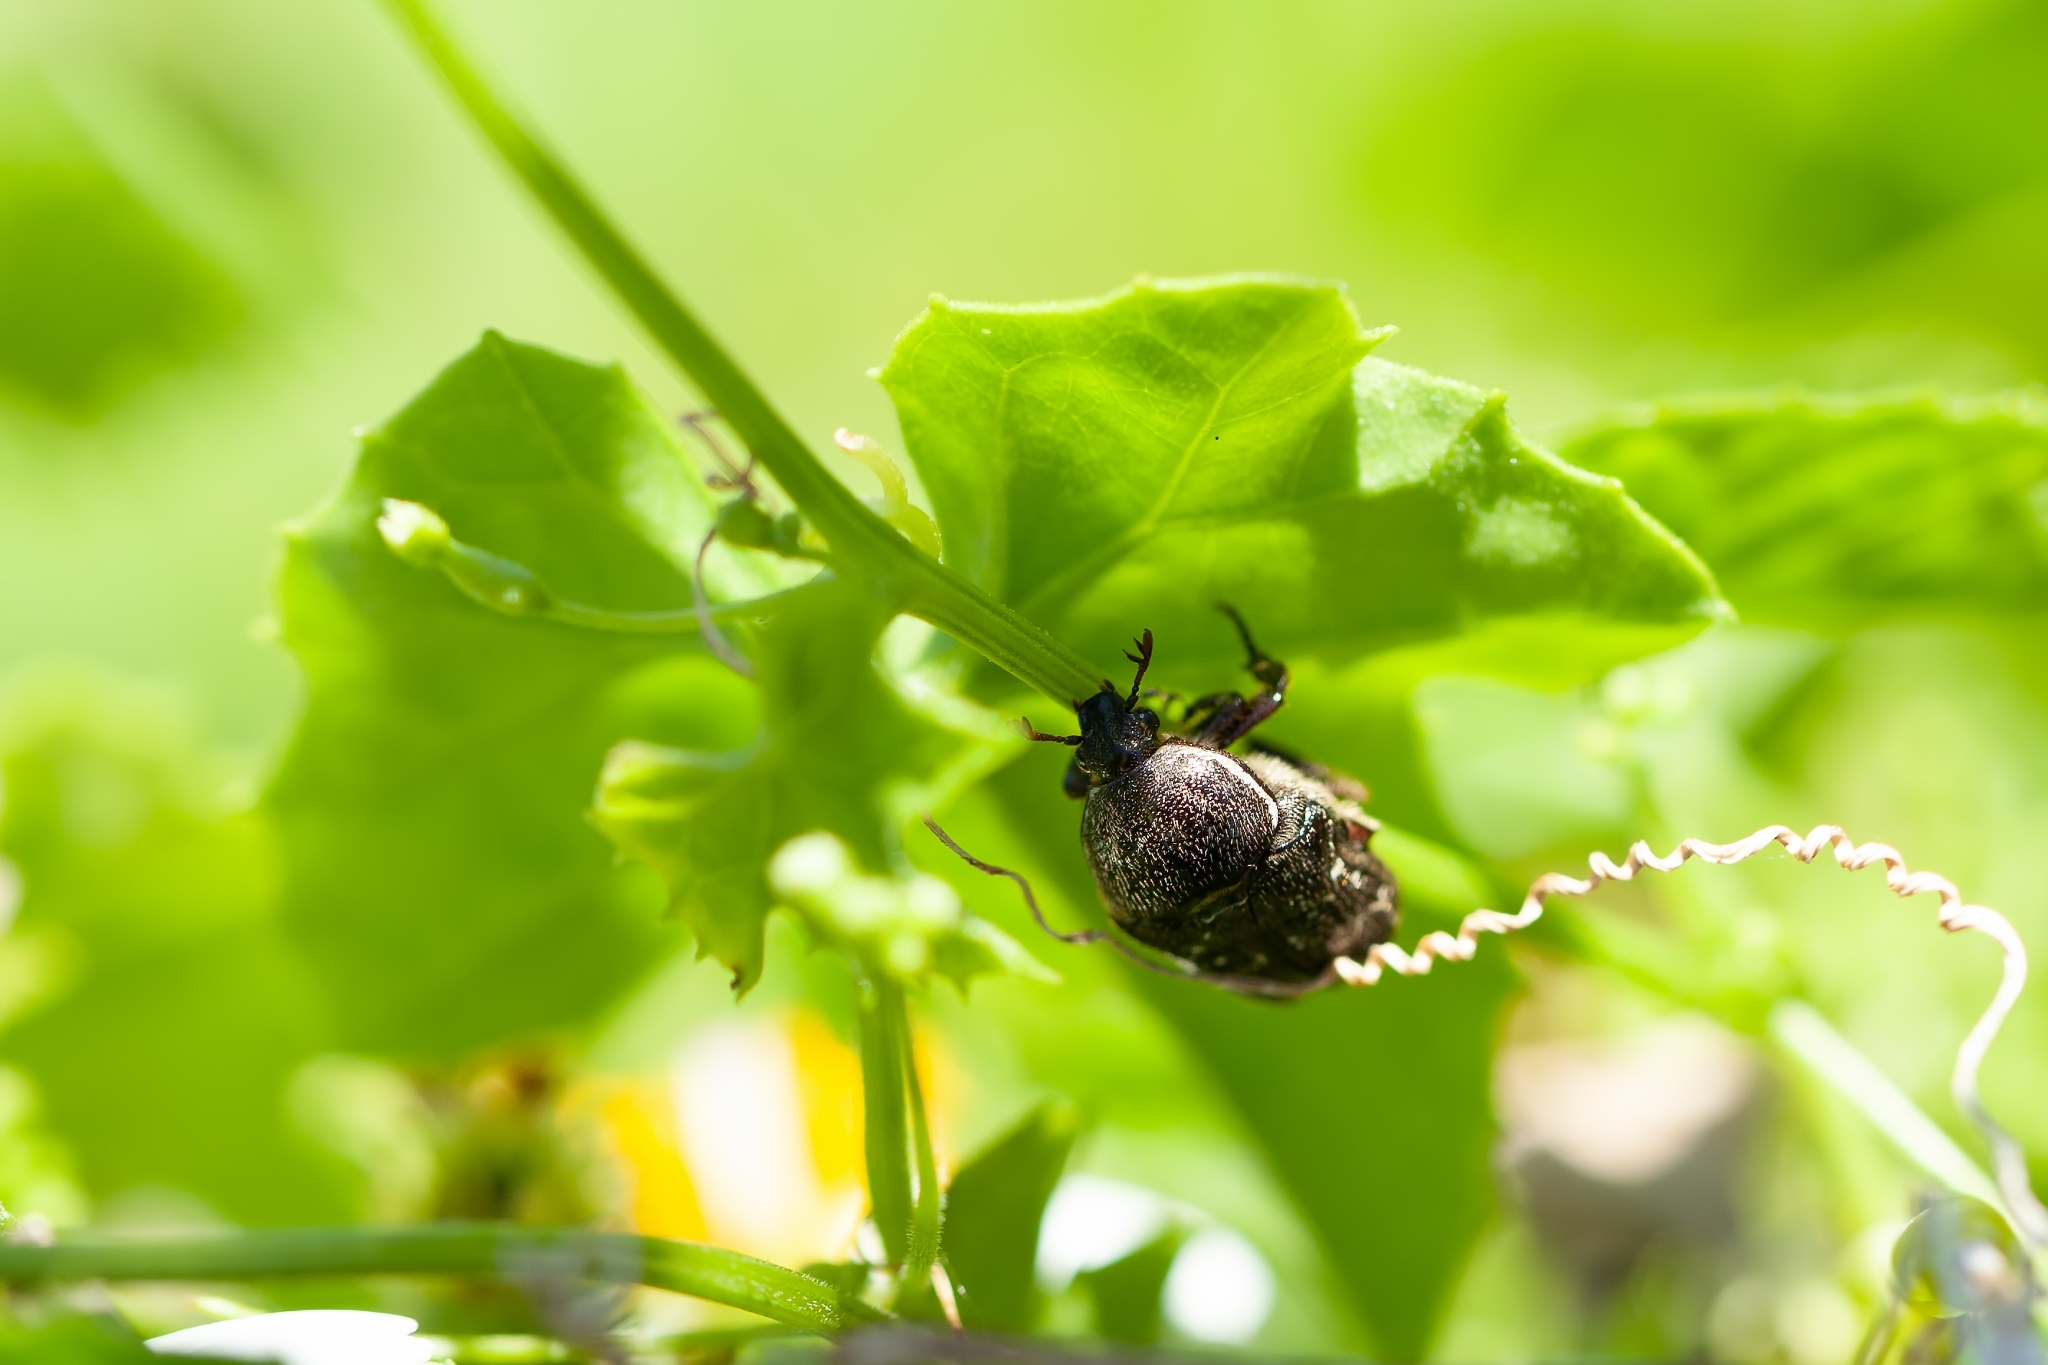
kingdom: Animalia
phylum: Arthropoda
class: Insecta
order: Coleoptera
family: Scarabaeidae
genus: Euphoria
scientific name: Euphoria sepulcralis
